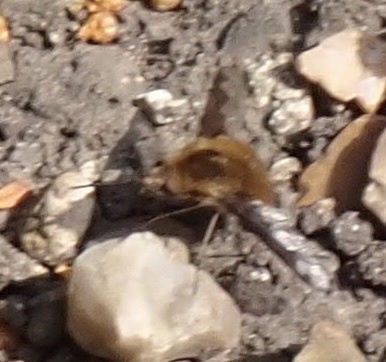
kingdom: Animalia
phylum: Arthropoda
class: Insecta
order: Diptera
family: Bombyliidae
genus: Bombylius
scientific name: Bombylius major
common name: Bee fly
